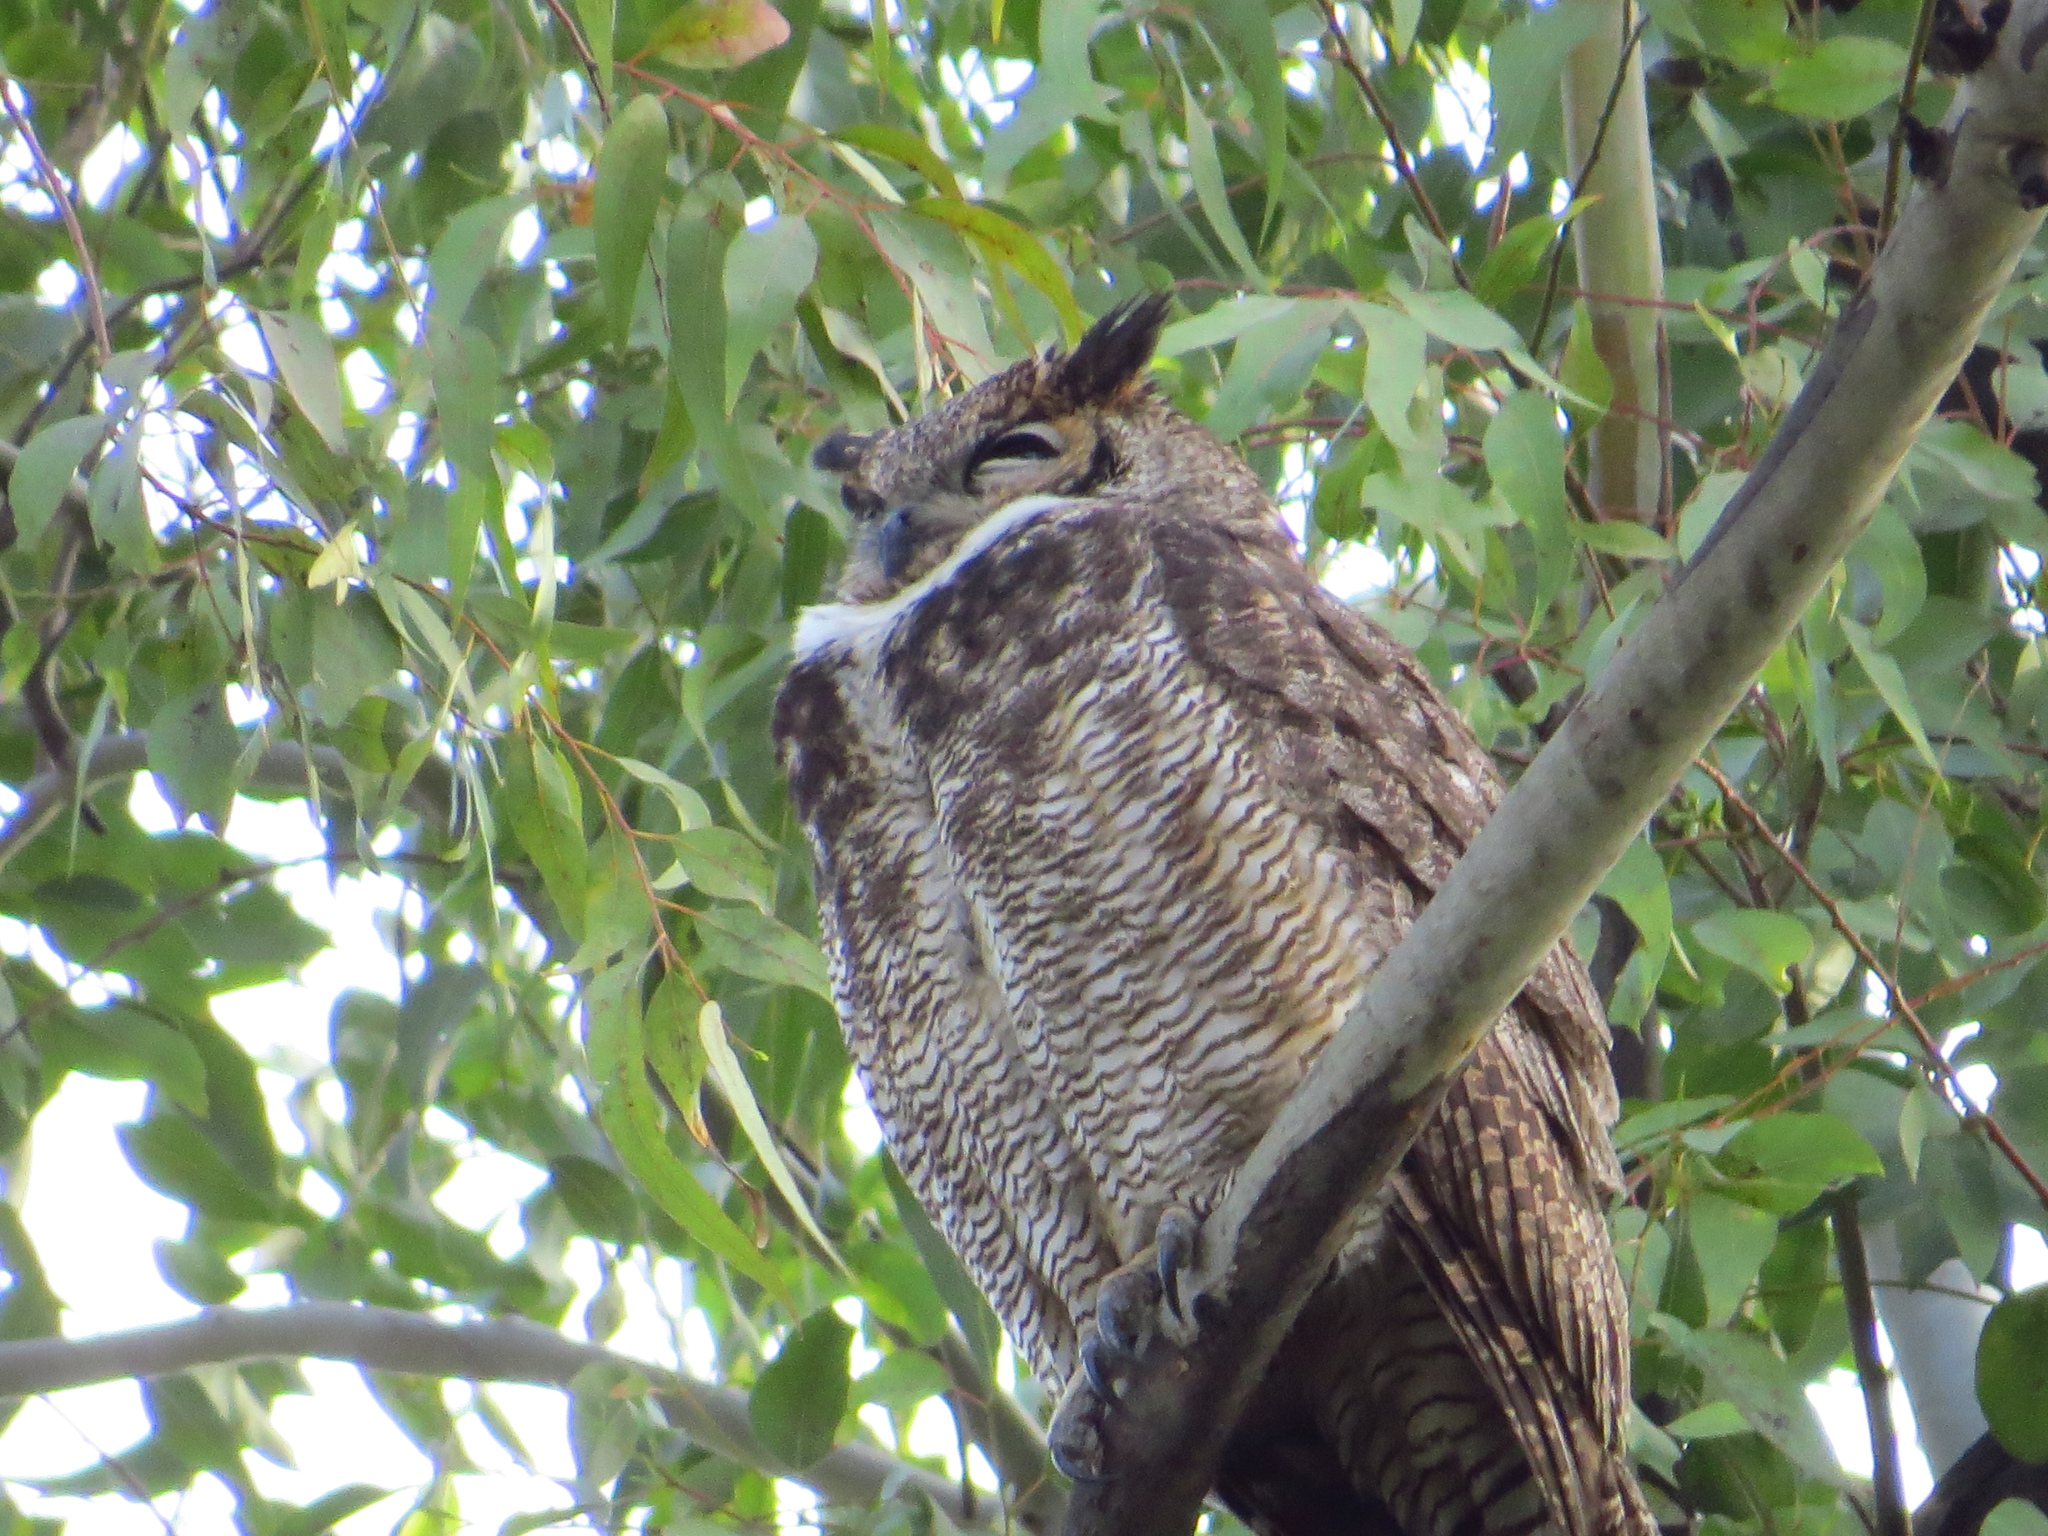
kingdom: Animalia
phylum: Chordata
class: Aves
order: Strigiformes
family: Strigidae
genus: Bubo
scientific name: Bubo virginianus
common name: Great horned owl
